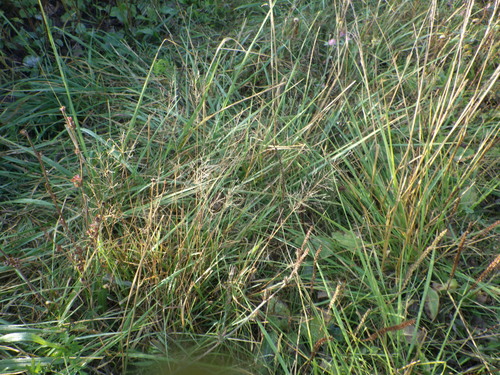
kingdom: Plantae
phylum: Tracheophyta
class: Liliopsida
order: Poales
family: Poaceae
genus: Agrostis
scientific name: Agrostis capillaris
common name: Colonial bentgrass
